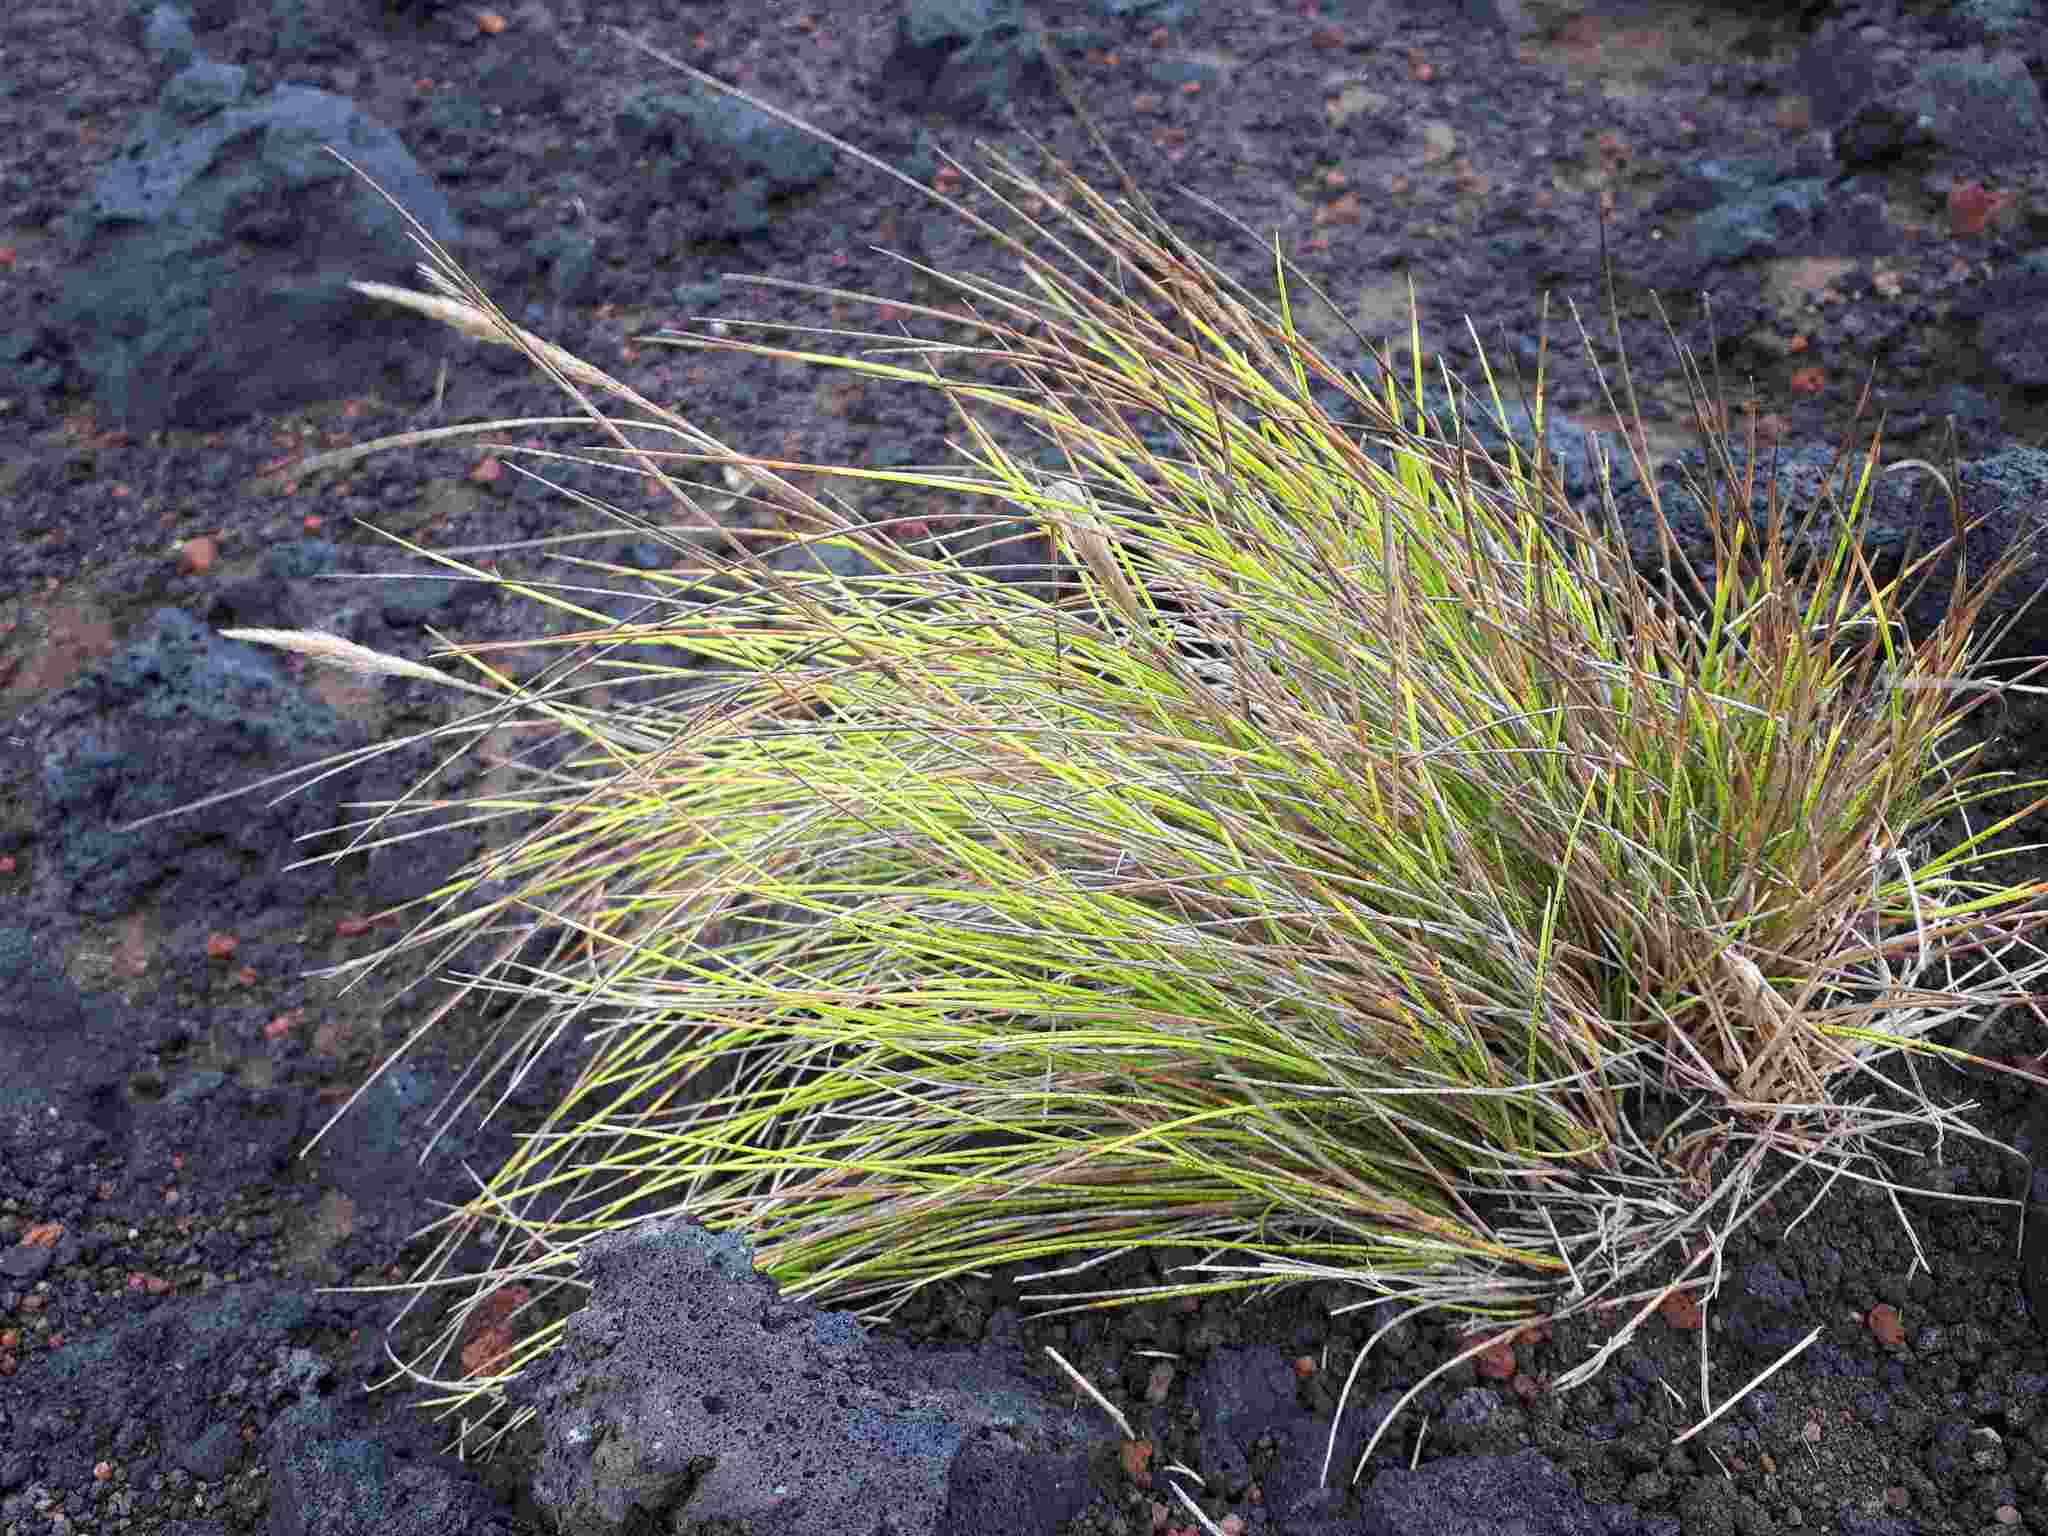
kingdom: Plantae
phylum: Tracheophyta
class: Liliopsida
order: Poales
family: Poaceae
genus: Festuca
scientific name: Festuca petraea
